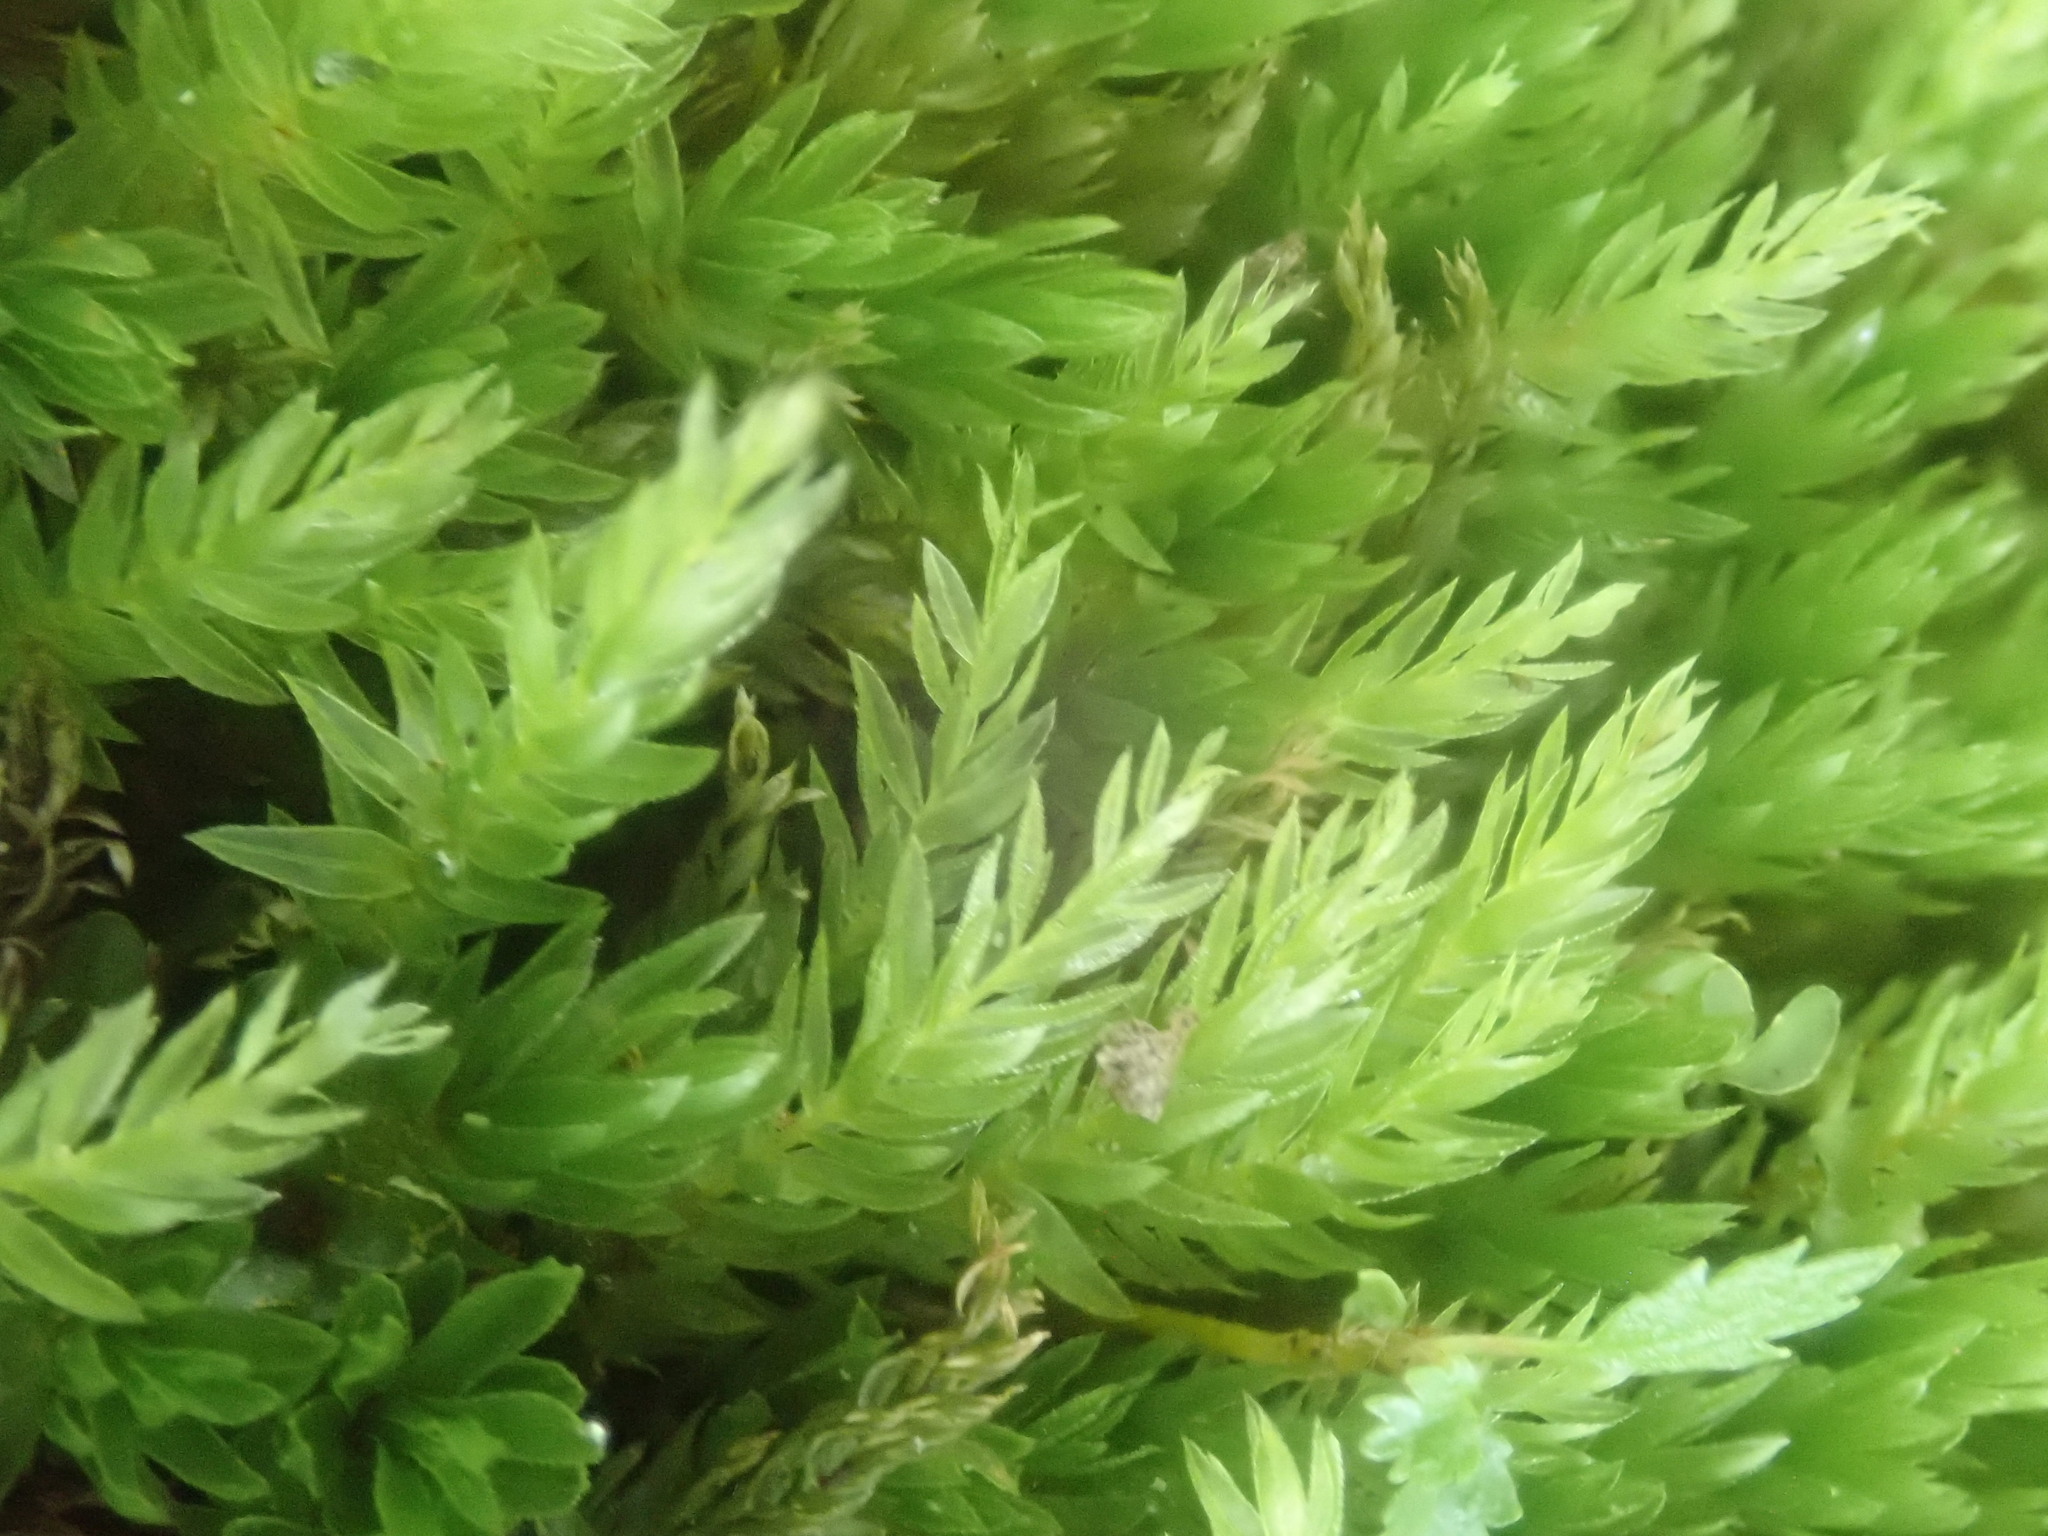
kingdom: Plantae
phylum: Bryophyta
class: Bryopsida
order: Bryales
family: Mniaceae
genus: Mnium
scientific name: Mnium hornum
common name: Swan's-neck leafy moss
